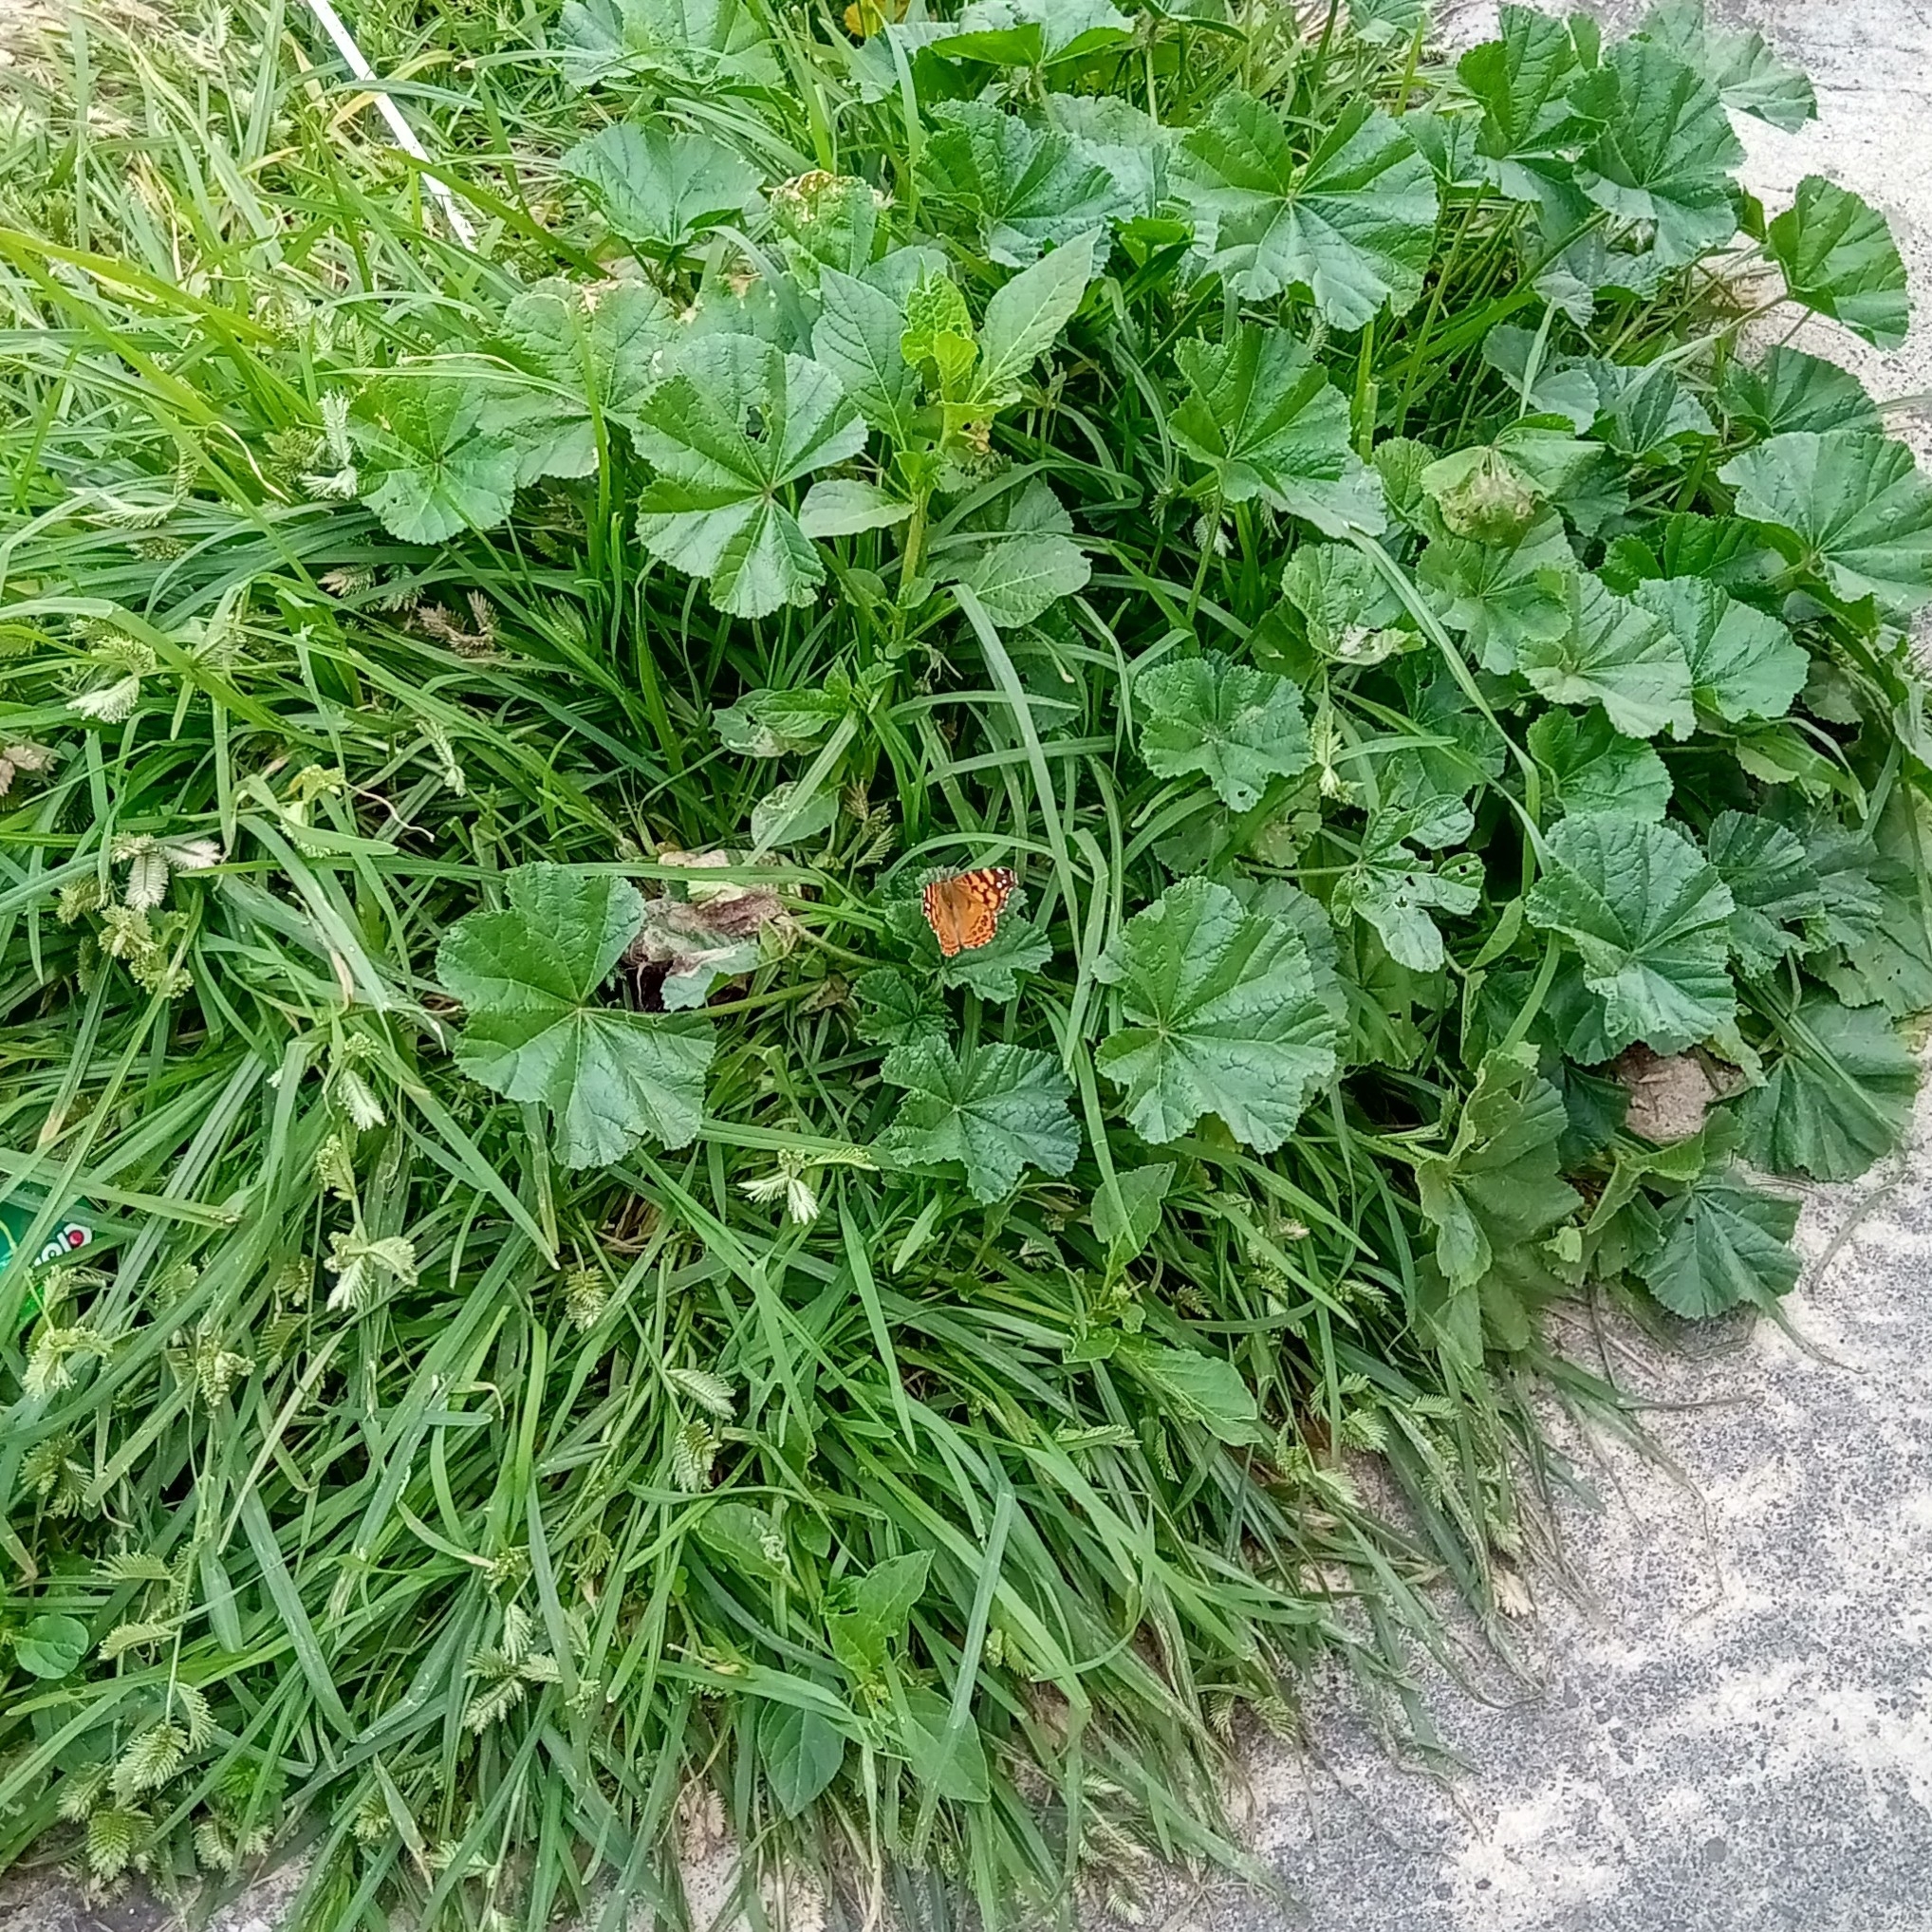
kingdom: Animalia
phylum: Arthropoda
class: Insecta
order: Lepidoptera
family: Nymphalidae
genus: Vanessa
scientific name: Vanessa annabella
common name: West coast lady
